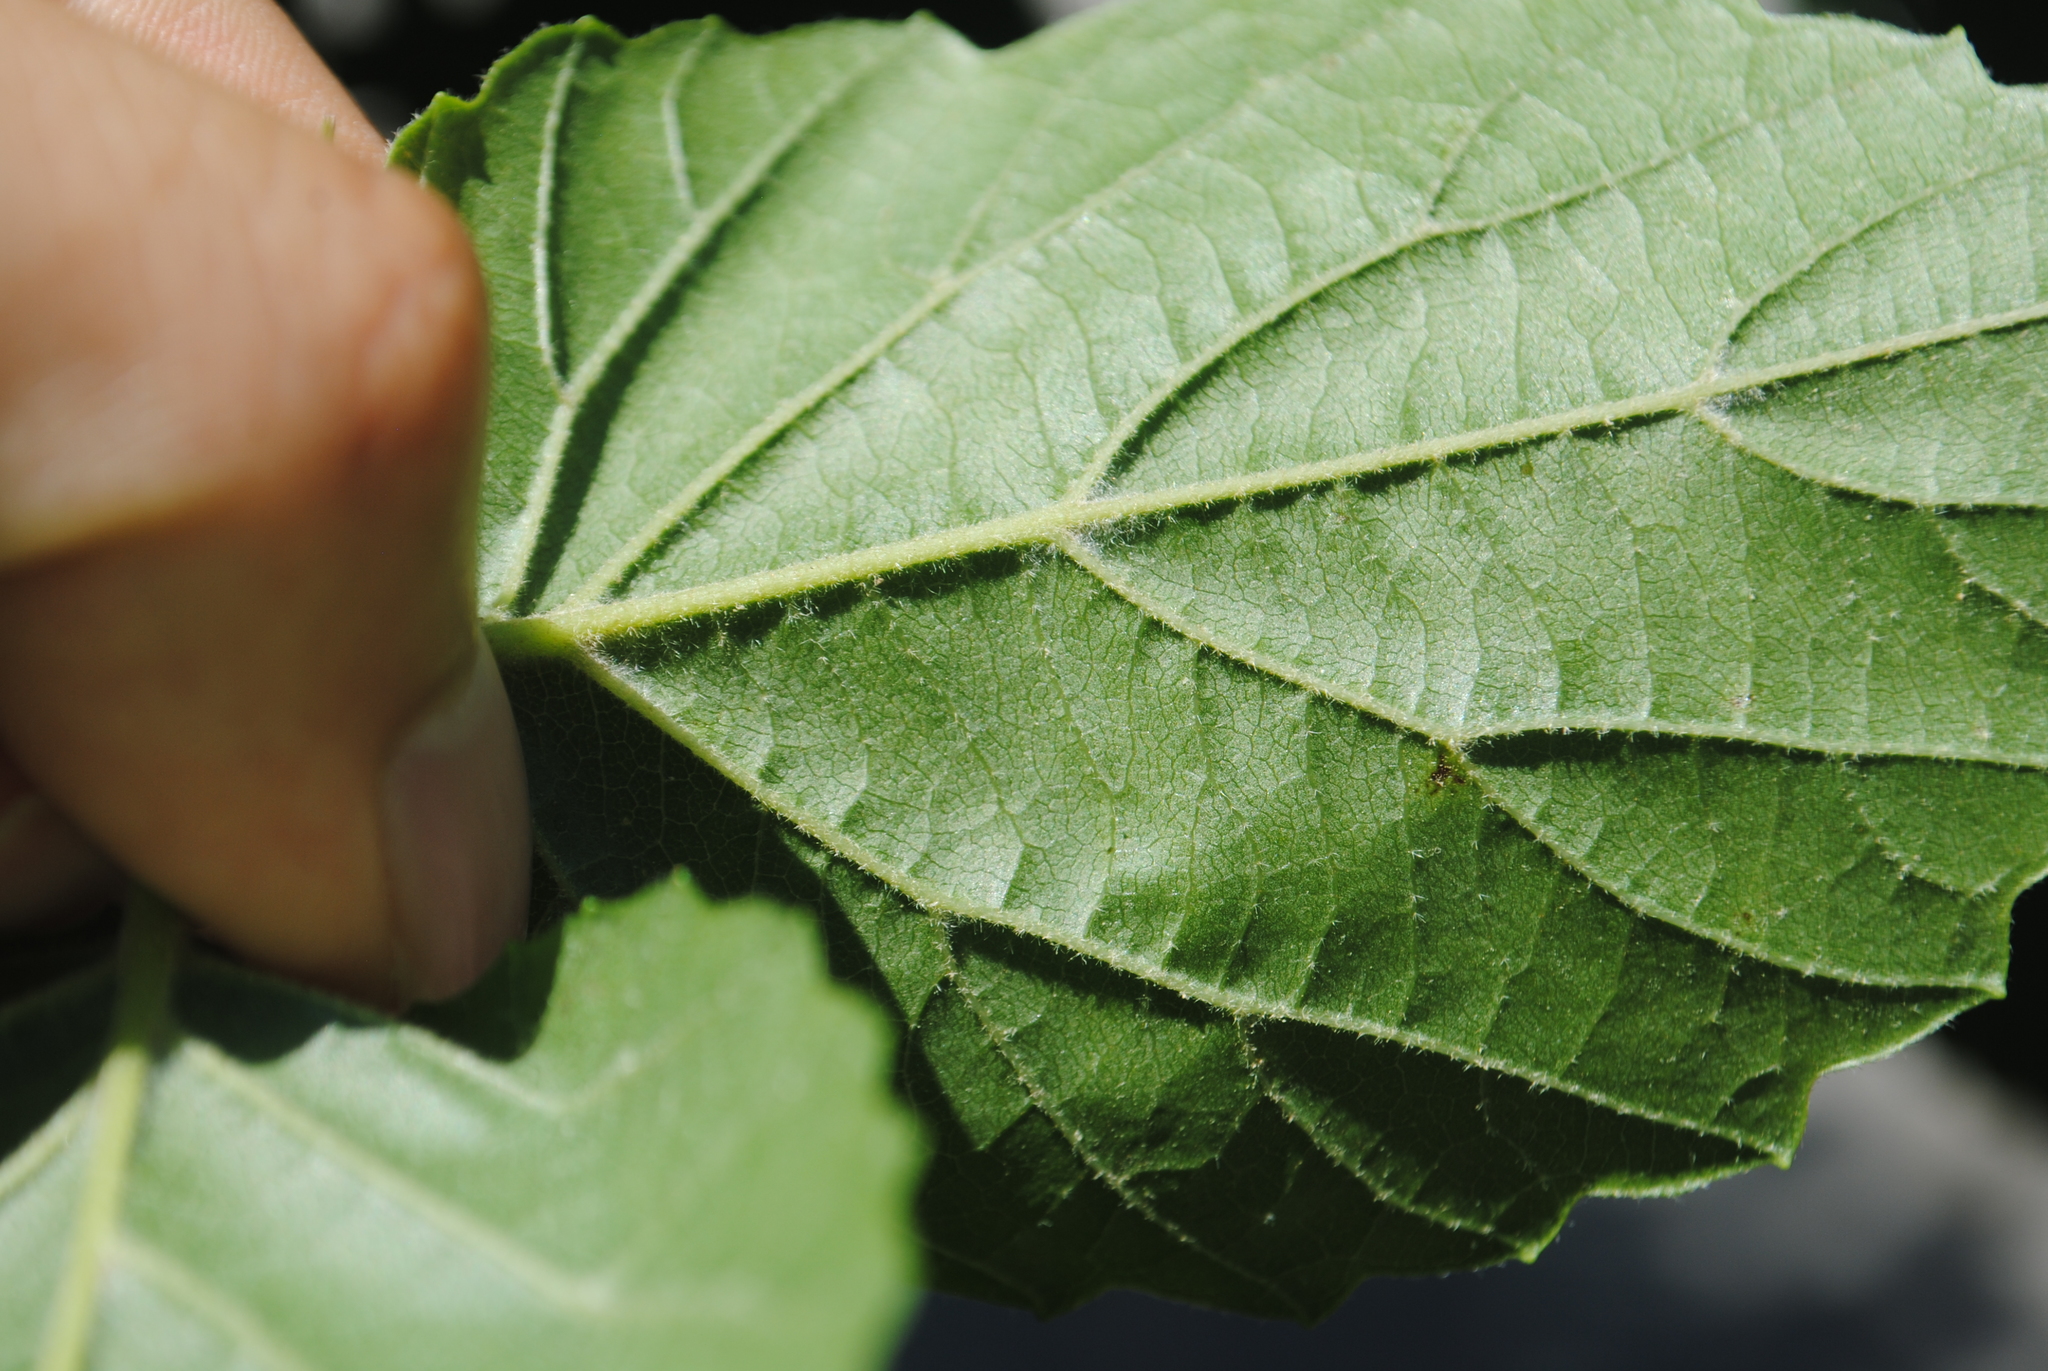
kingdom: Plantae
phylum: Tracheophyta
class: Magnoliopsida
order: Dipsacales
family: Viburnaceae
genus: Viburnum
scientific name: Viburnum venosum
